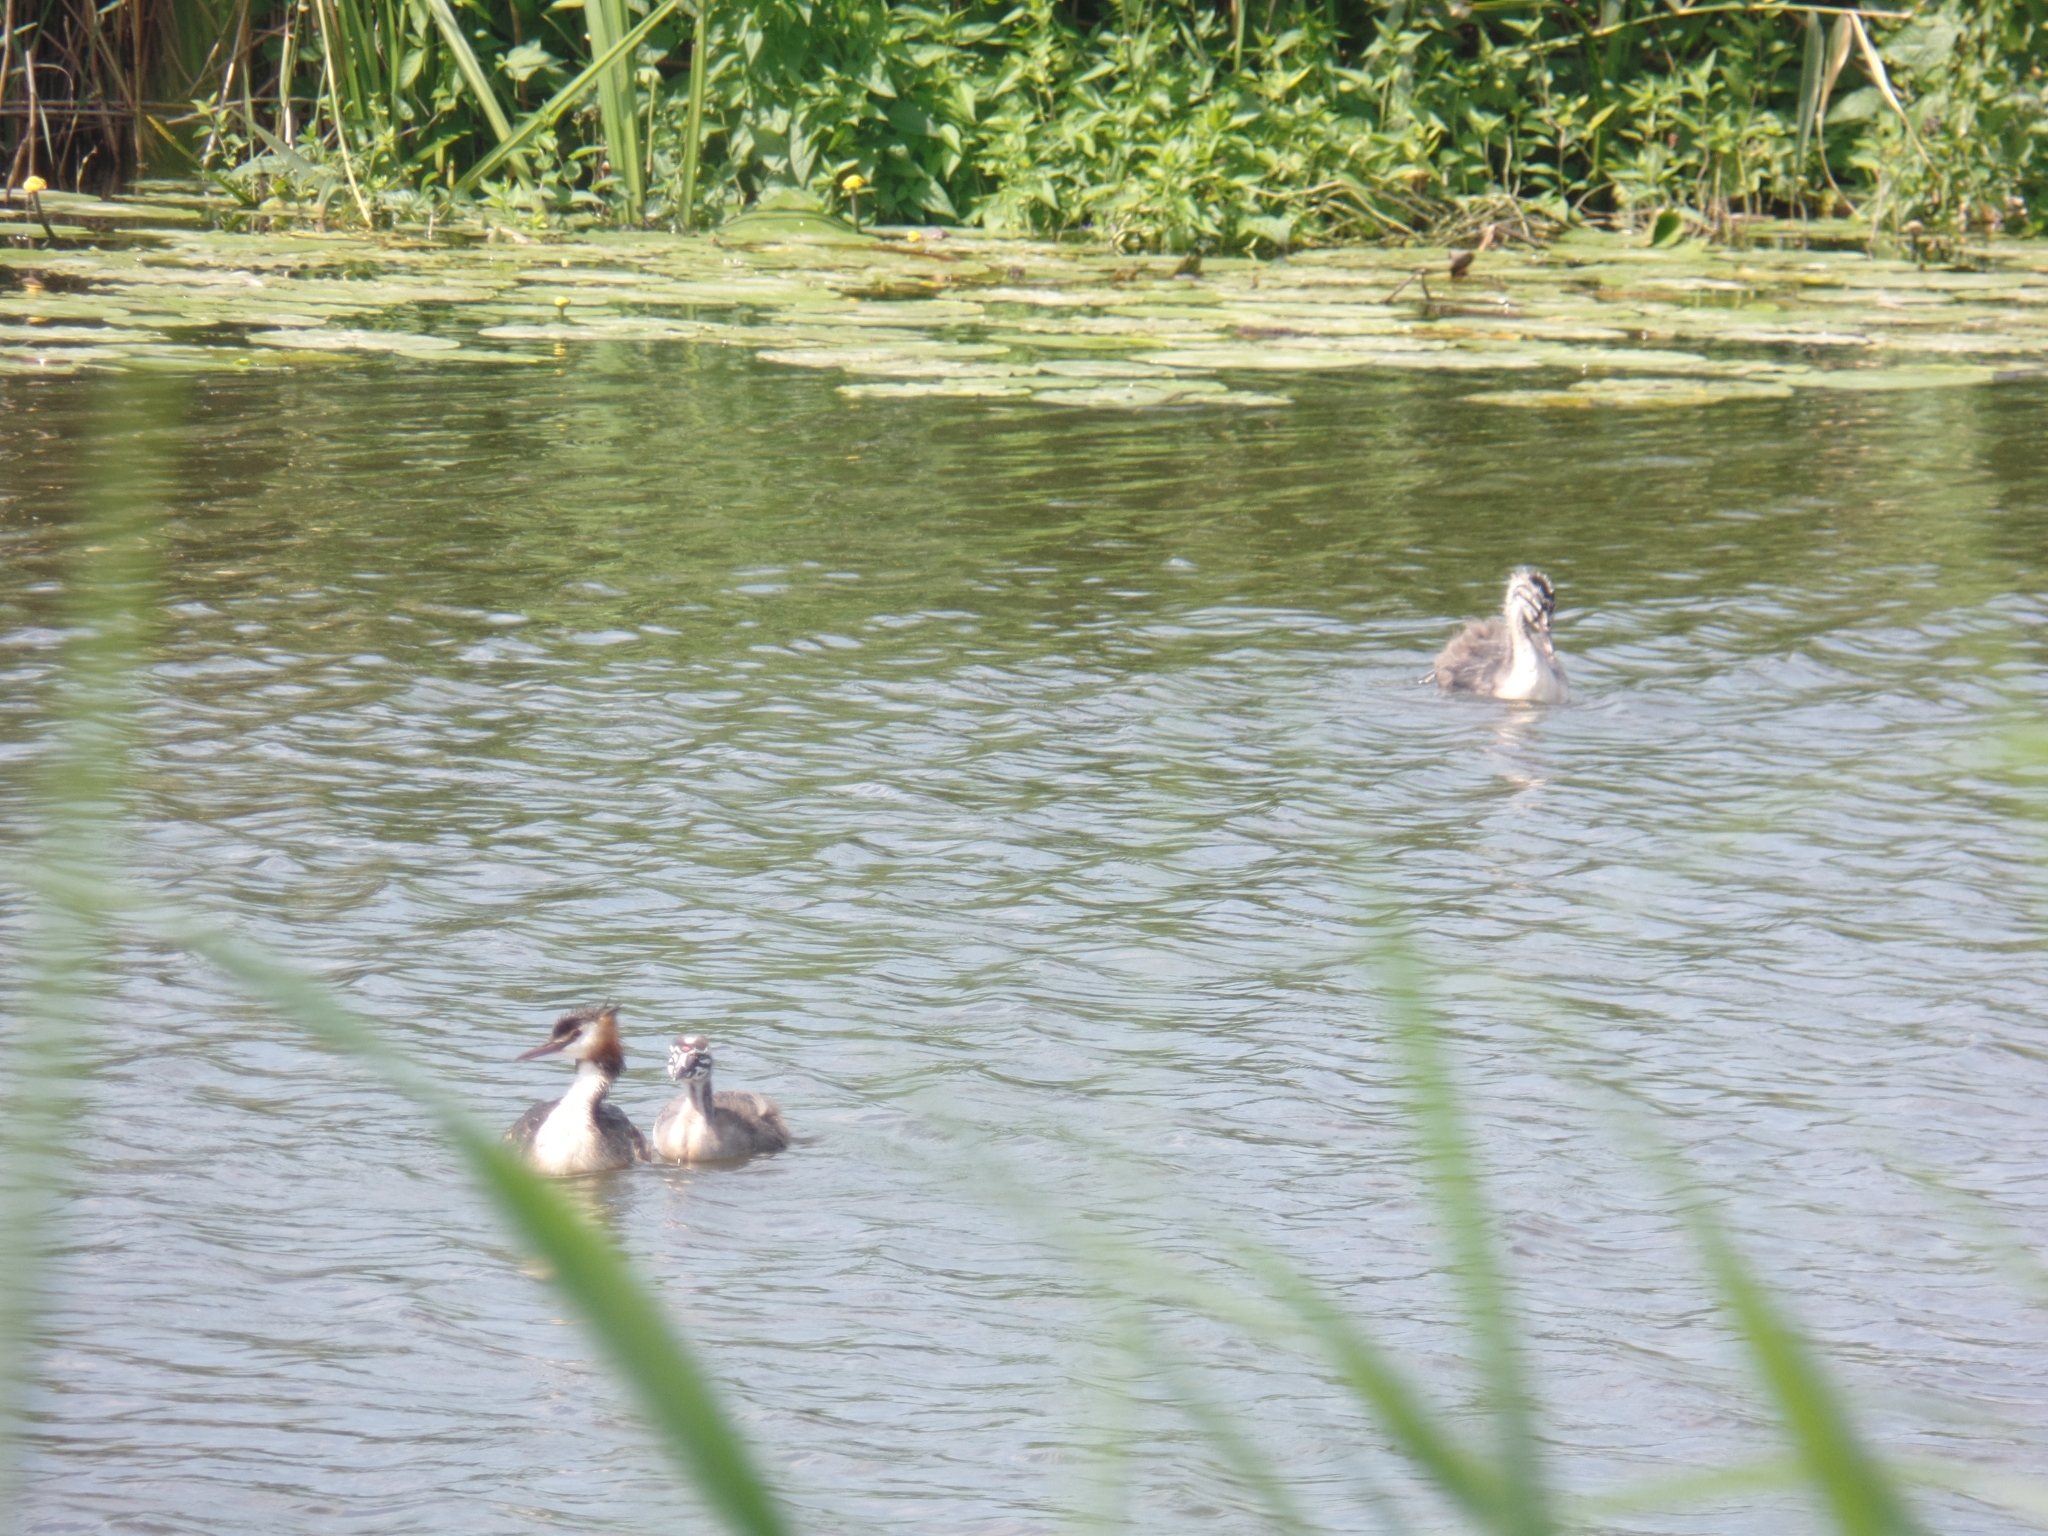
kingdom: Animalia
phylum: Chordata
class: Aves
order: Podicipediformes
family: Podicipedidae
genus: Podiceps
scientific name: Podiceps cristatus
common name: Great crested grebe
